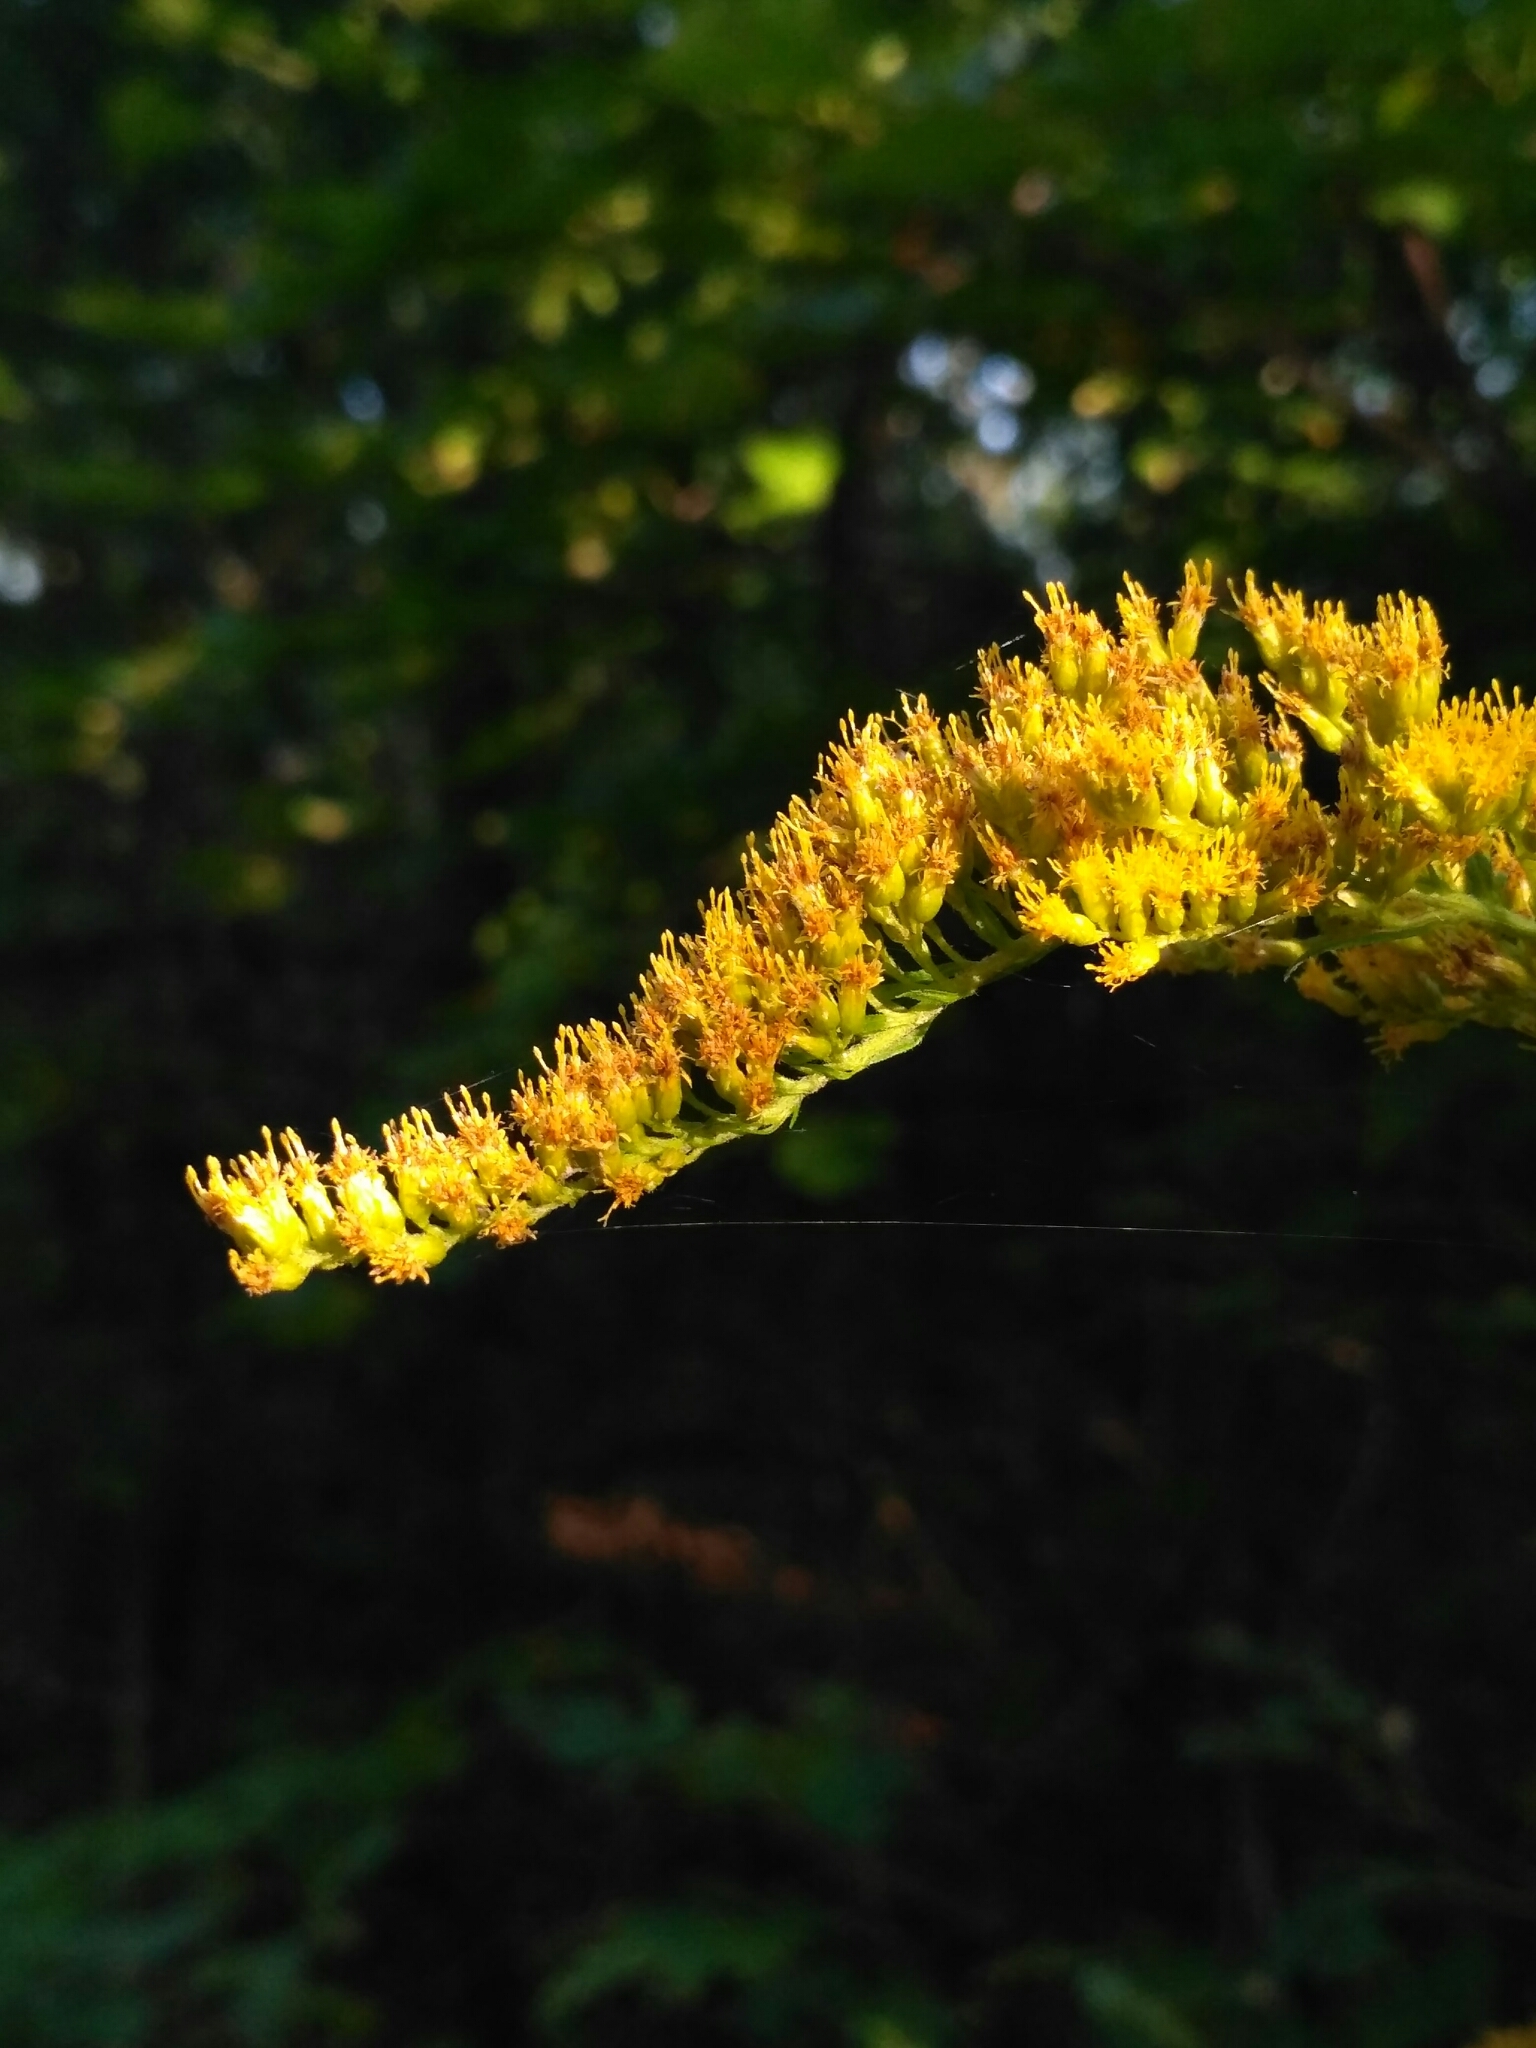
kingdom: Plantae
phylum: Tracheophyta
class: Magnoliopsida
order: Asterales
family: Asteraceae
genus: Solidago
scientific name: Solidago canadensis
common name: Canada goldenrod
